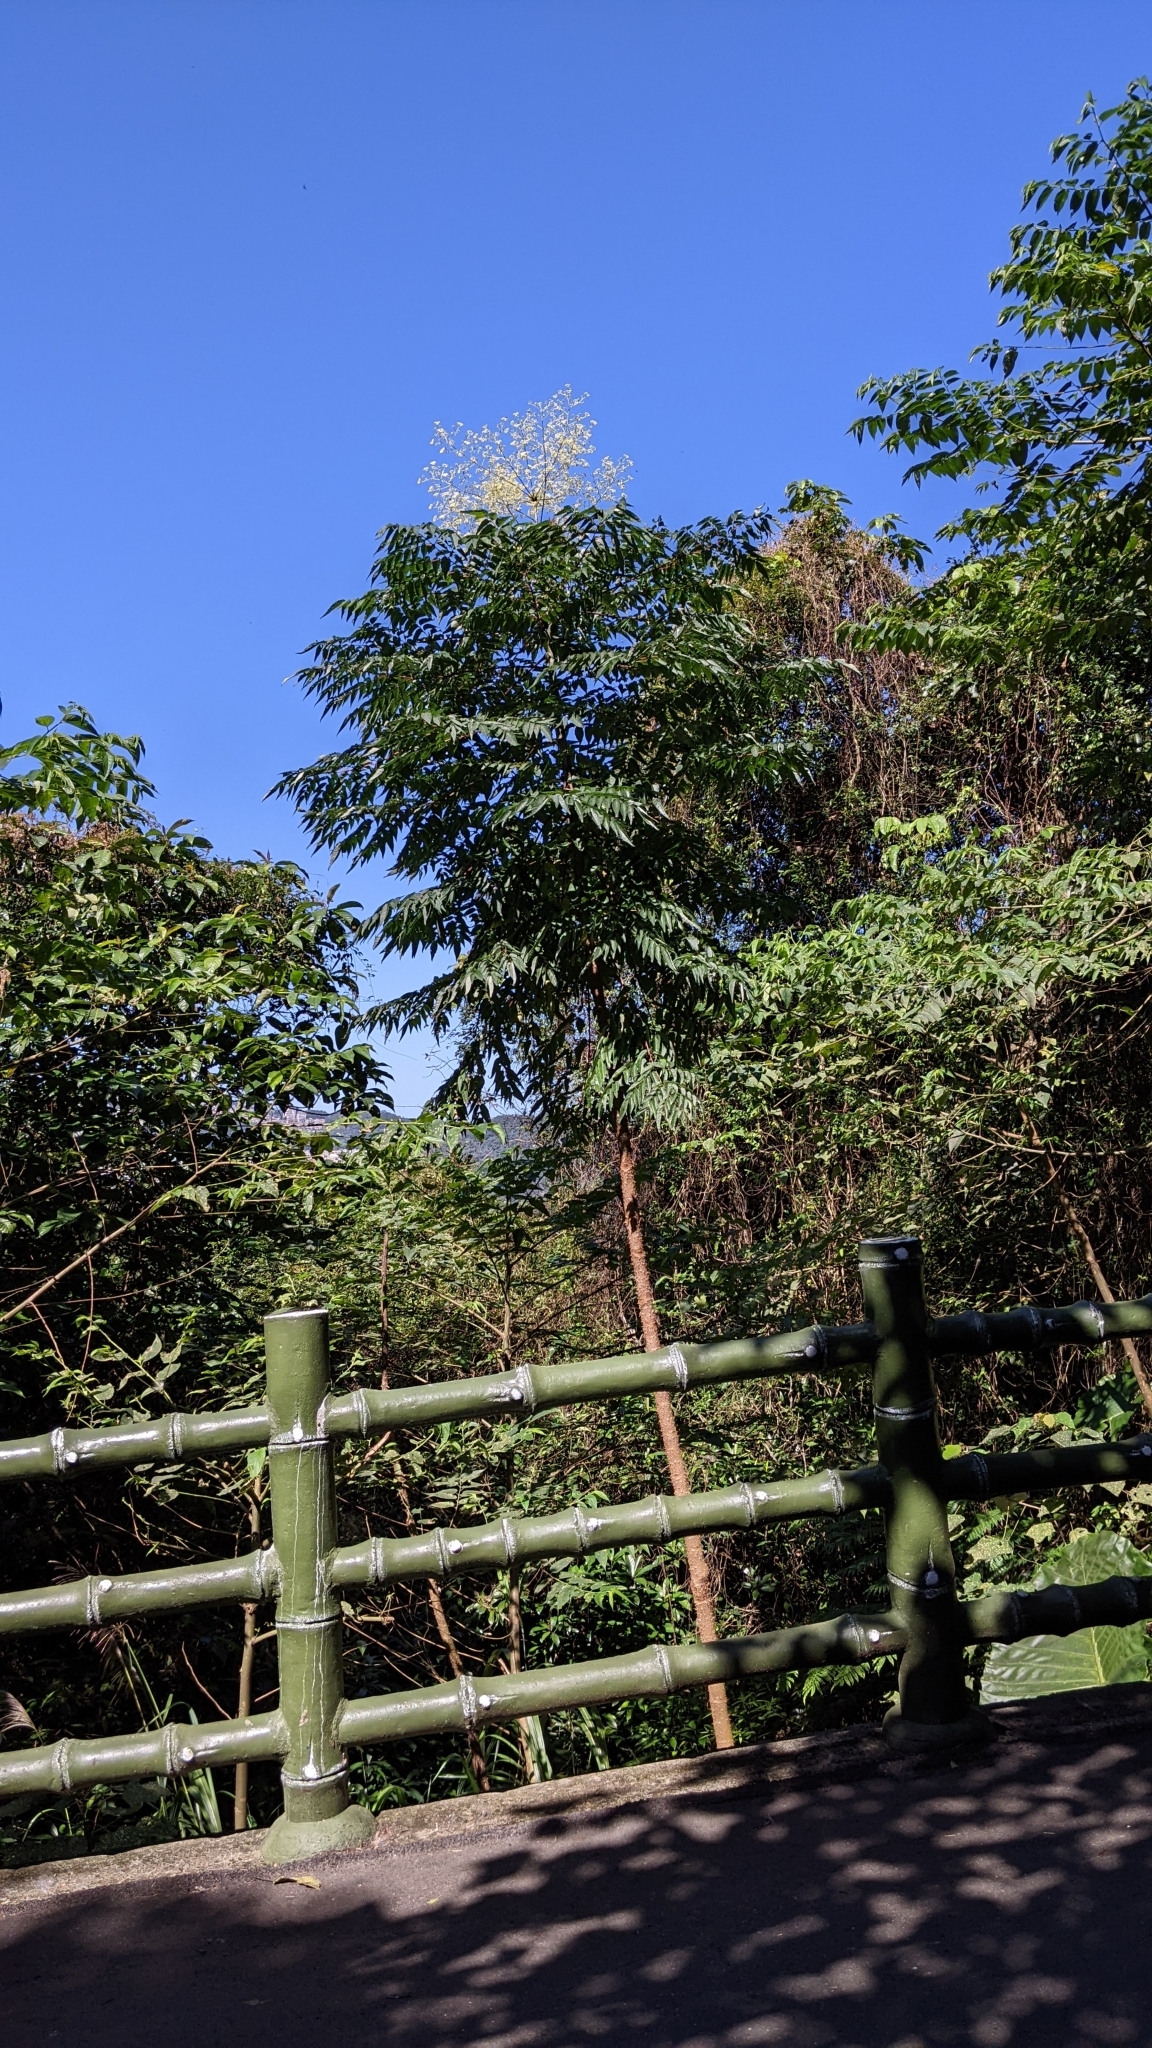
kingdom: Plantae
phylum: Tracheophyta
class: Magnoliopsida
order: Apiales
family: Araliaceae
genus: Aralia
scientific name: Aralia bipinnata
